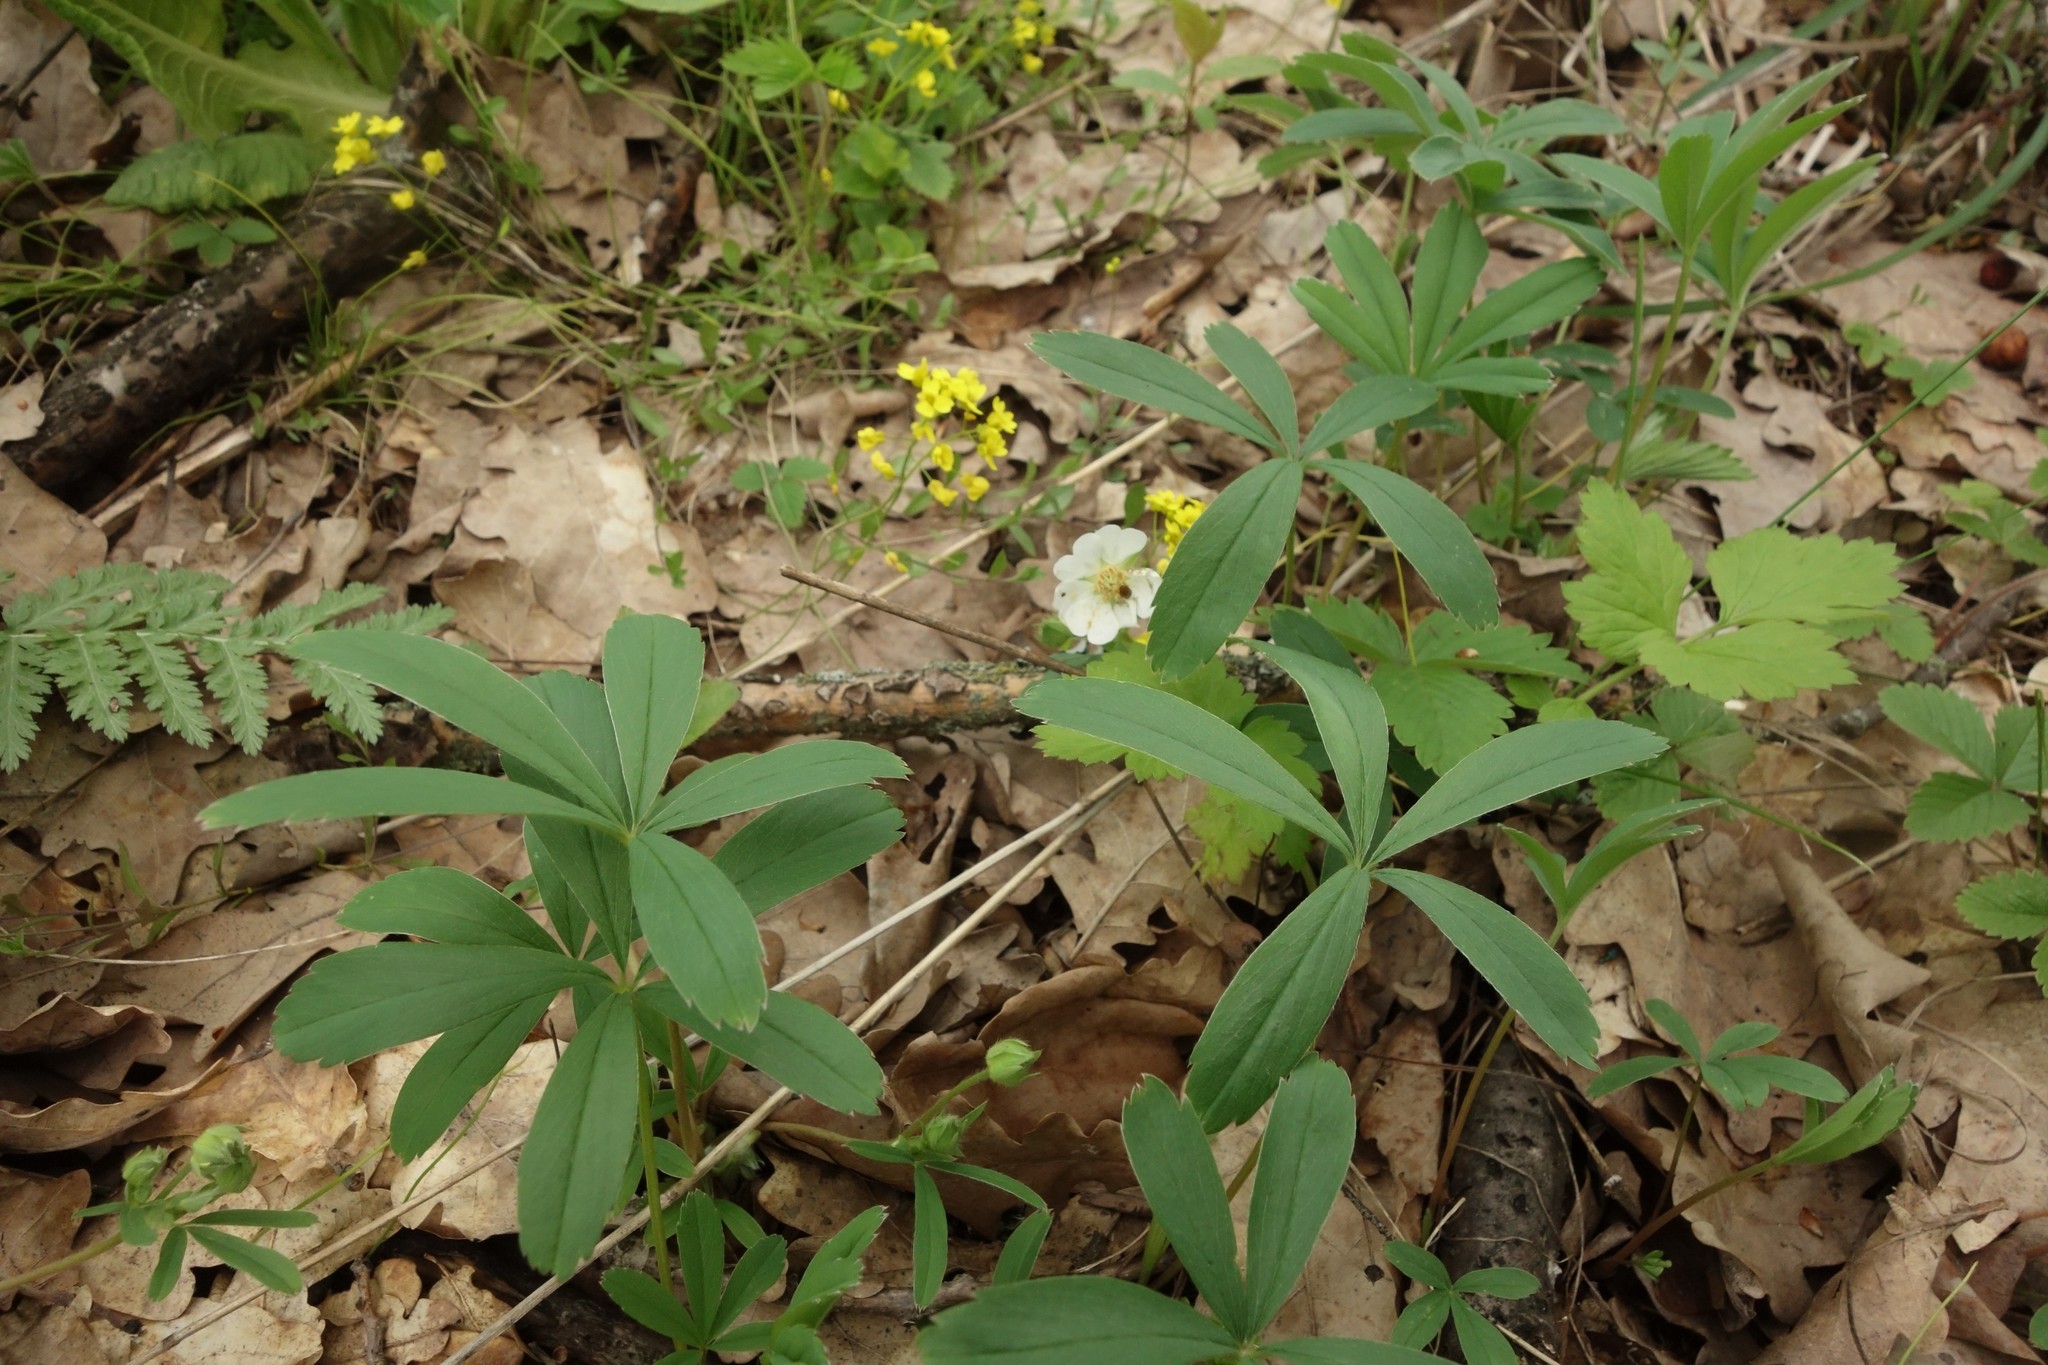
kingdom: Plantae
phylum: Tracheophyta
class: Magnoliopsida
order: Rosales
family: Rosaceae
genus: Potentilla
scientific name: Potentilla alba
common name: White cinquefoil
